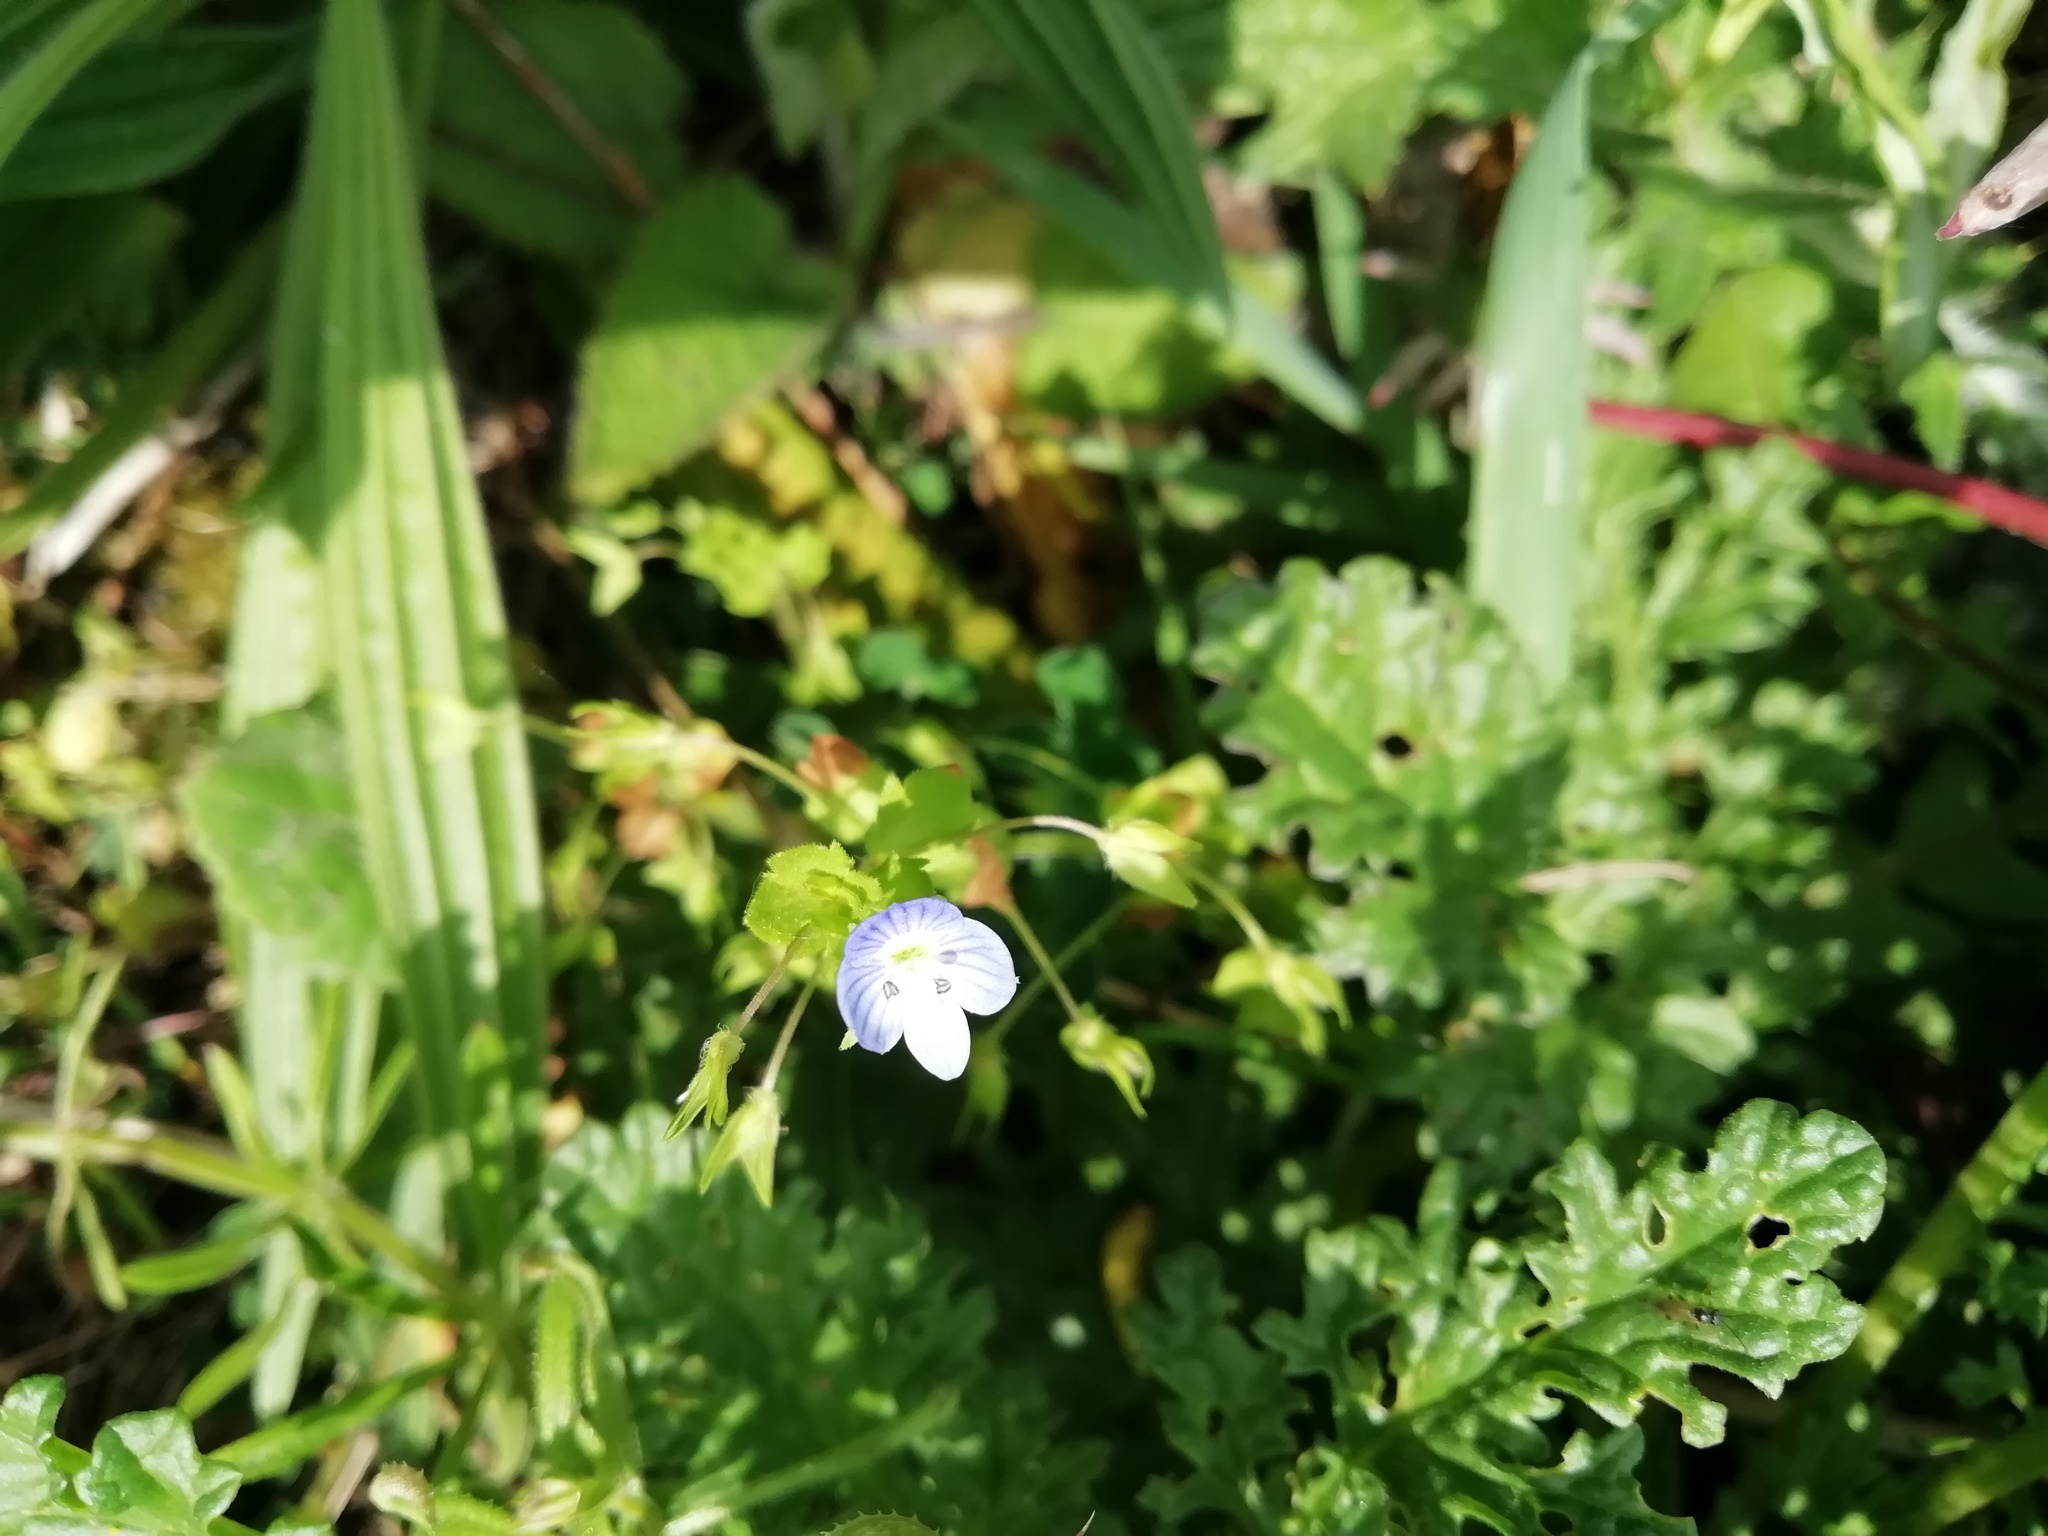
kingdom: Plantae
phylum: Tracheophyta
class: Magnoliopsida
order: Lamiales
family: Plantaginaceae
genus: Veronica
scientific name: Veronica persica
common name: Common field-speedwell
